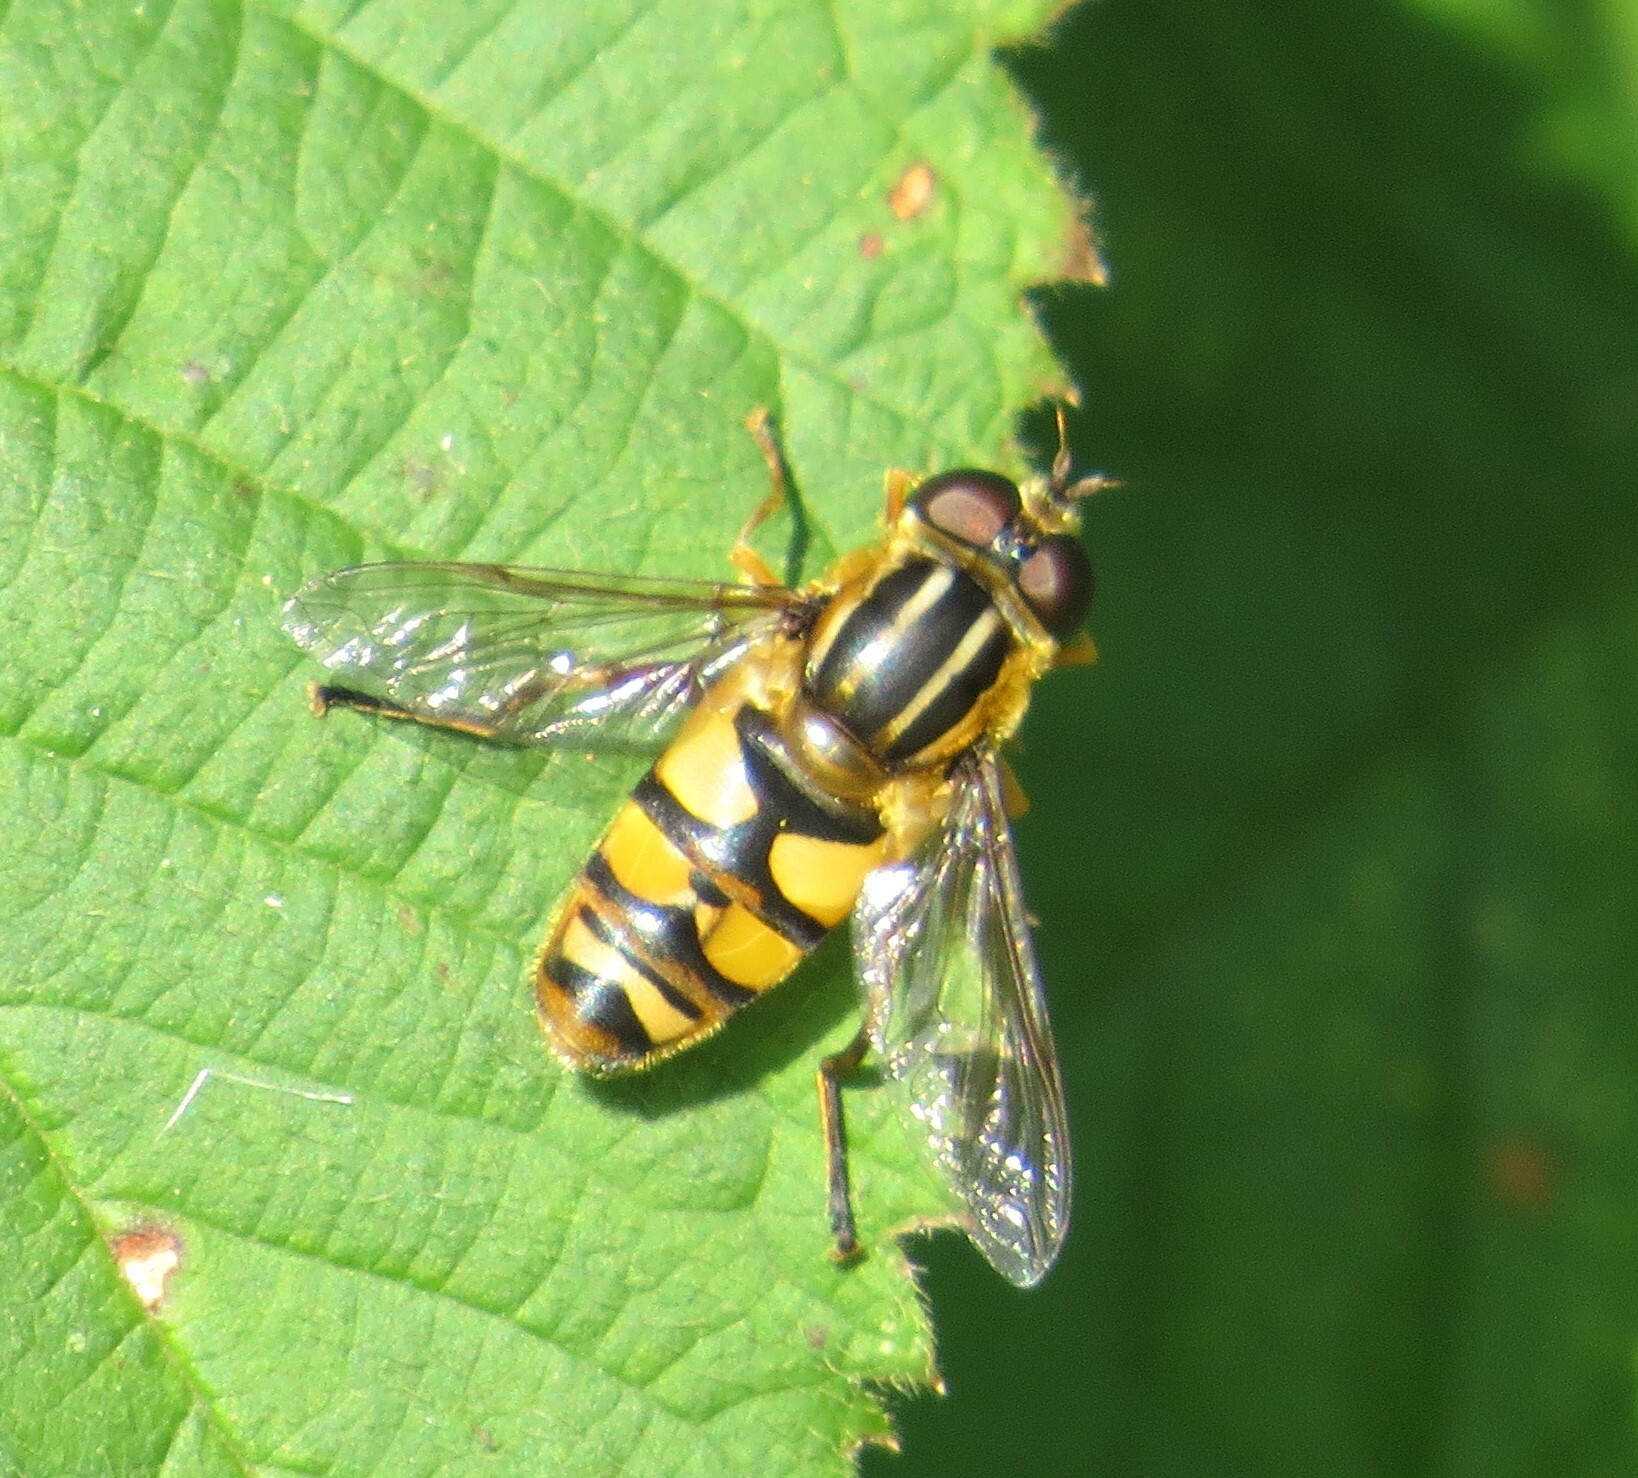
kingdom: Animalia
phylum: Arthropoda
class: Insecta
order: Diptera
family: Syrphidae
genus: Helophilus
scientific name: Helophilus fasciatus
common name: Narrow-headed marsh fly
